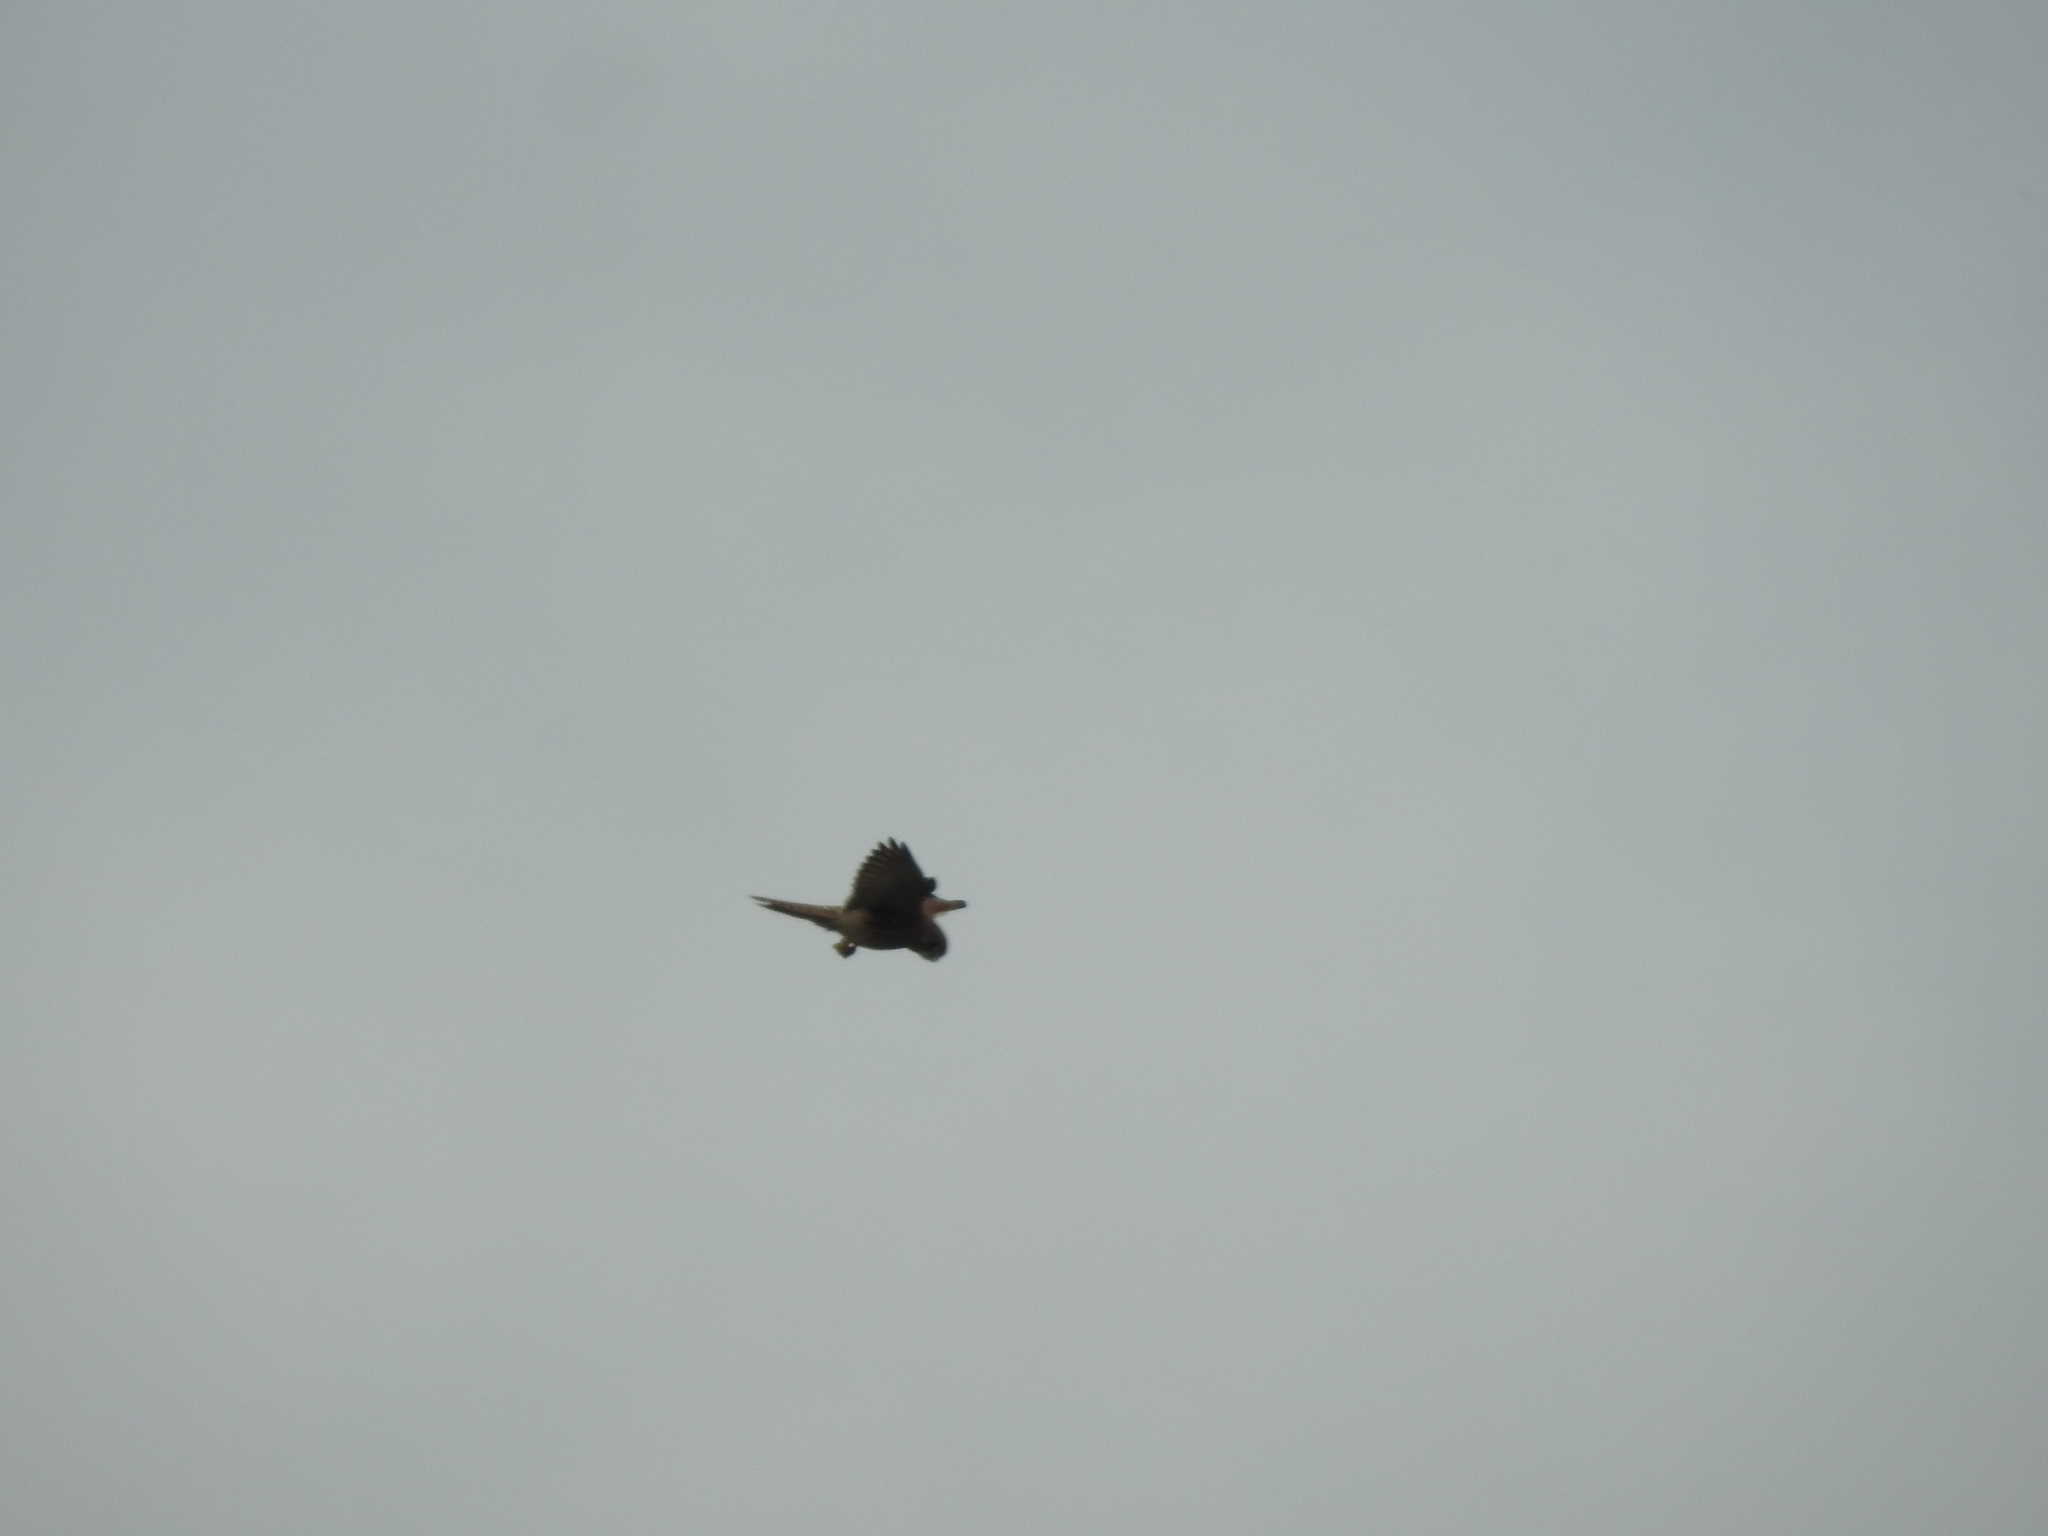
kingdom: Animalia
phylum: Chordata
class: Aves
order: Falconiformes
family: Falconidae
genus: Falco
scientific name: Falco tinnunculus
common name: Common kestrel
